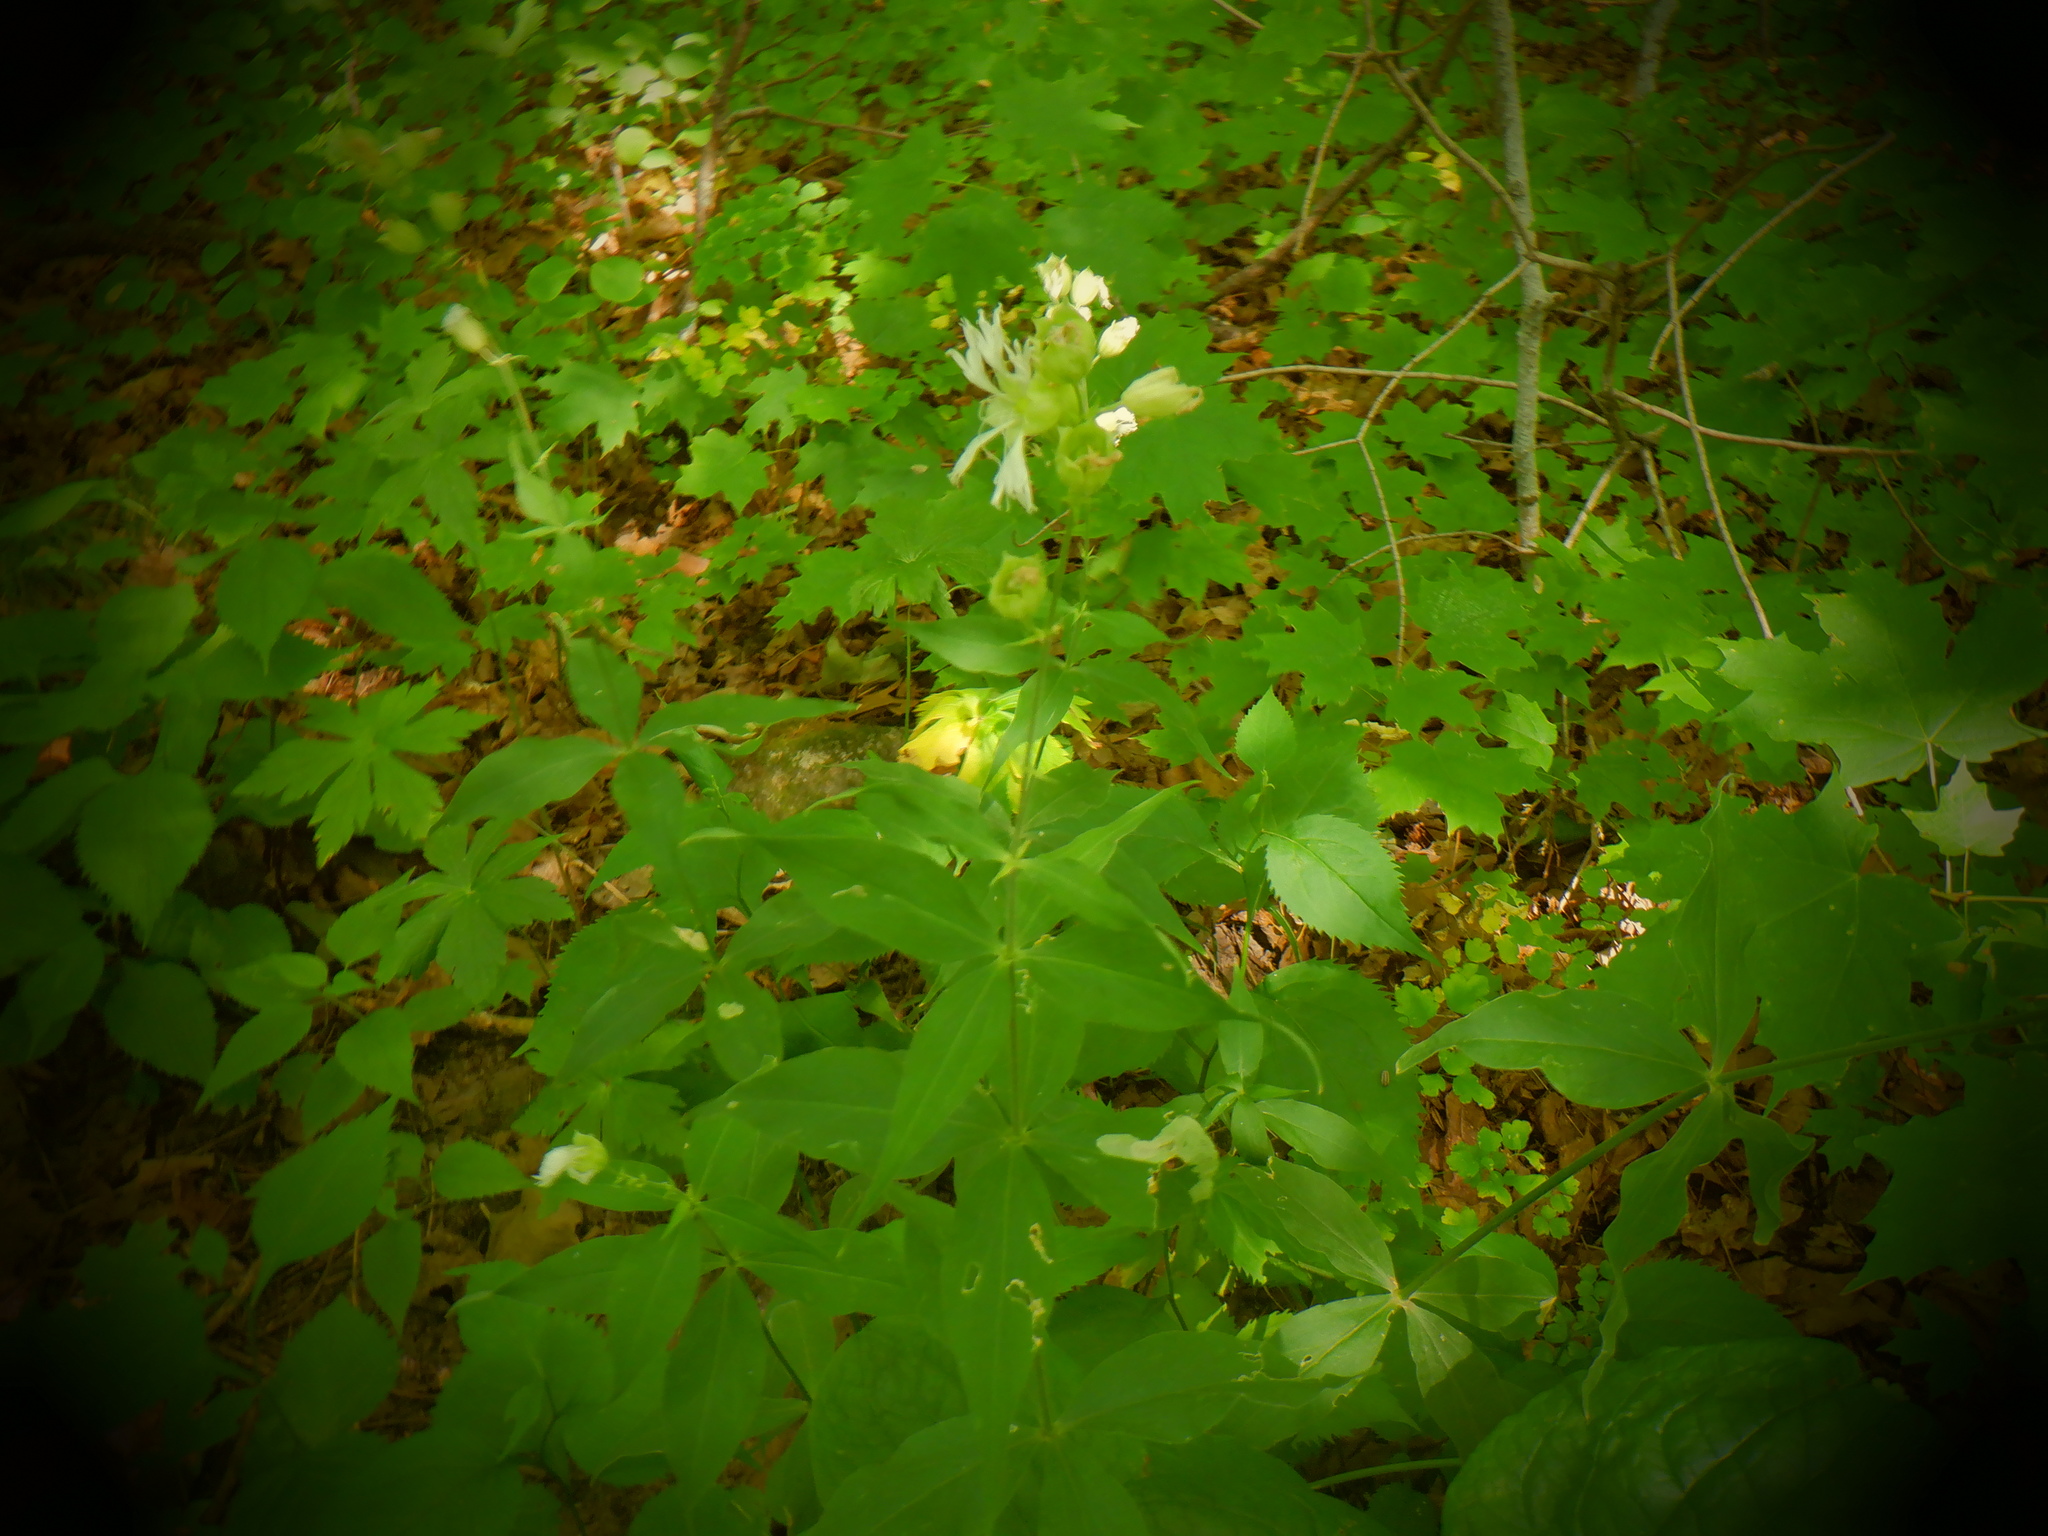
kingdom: Plantae
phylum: Tracheophyta
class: Magnoliopsida
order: Caryophyllales
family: Caryophyllaceae
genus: Silene
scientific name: Silene stellata
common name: Starry campion
